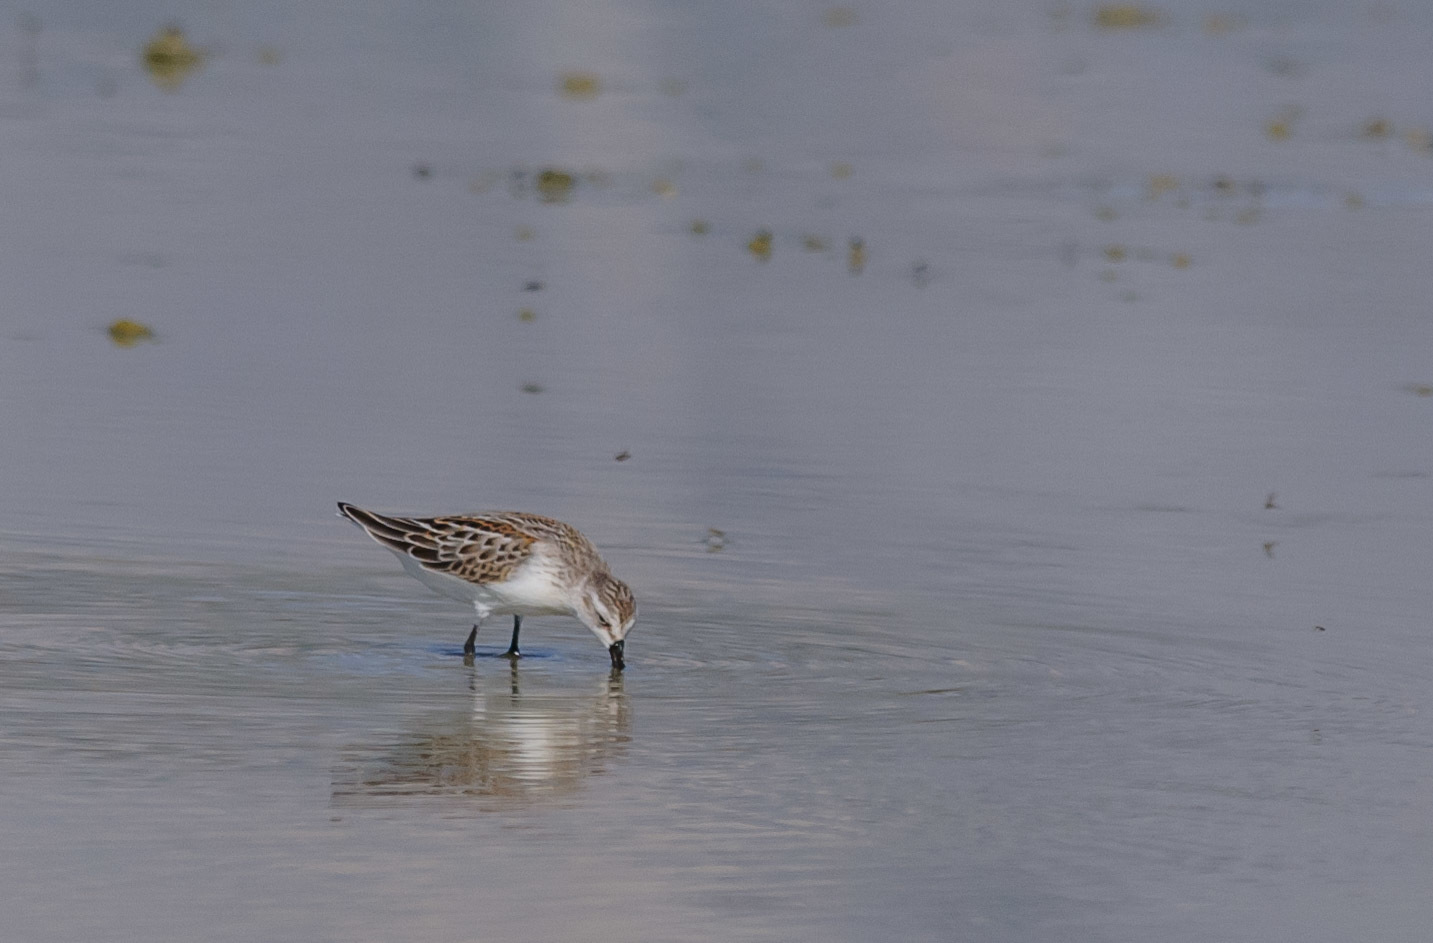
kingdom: Animalia
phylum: Chordata
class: Aves
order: Charadriiformes
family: Scolopacidae
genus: Calidris
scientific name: Calidris mauri
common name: Western sandpiper
